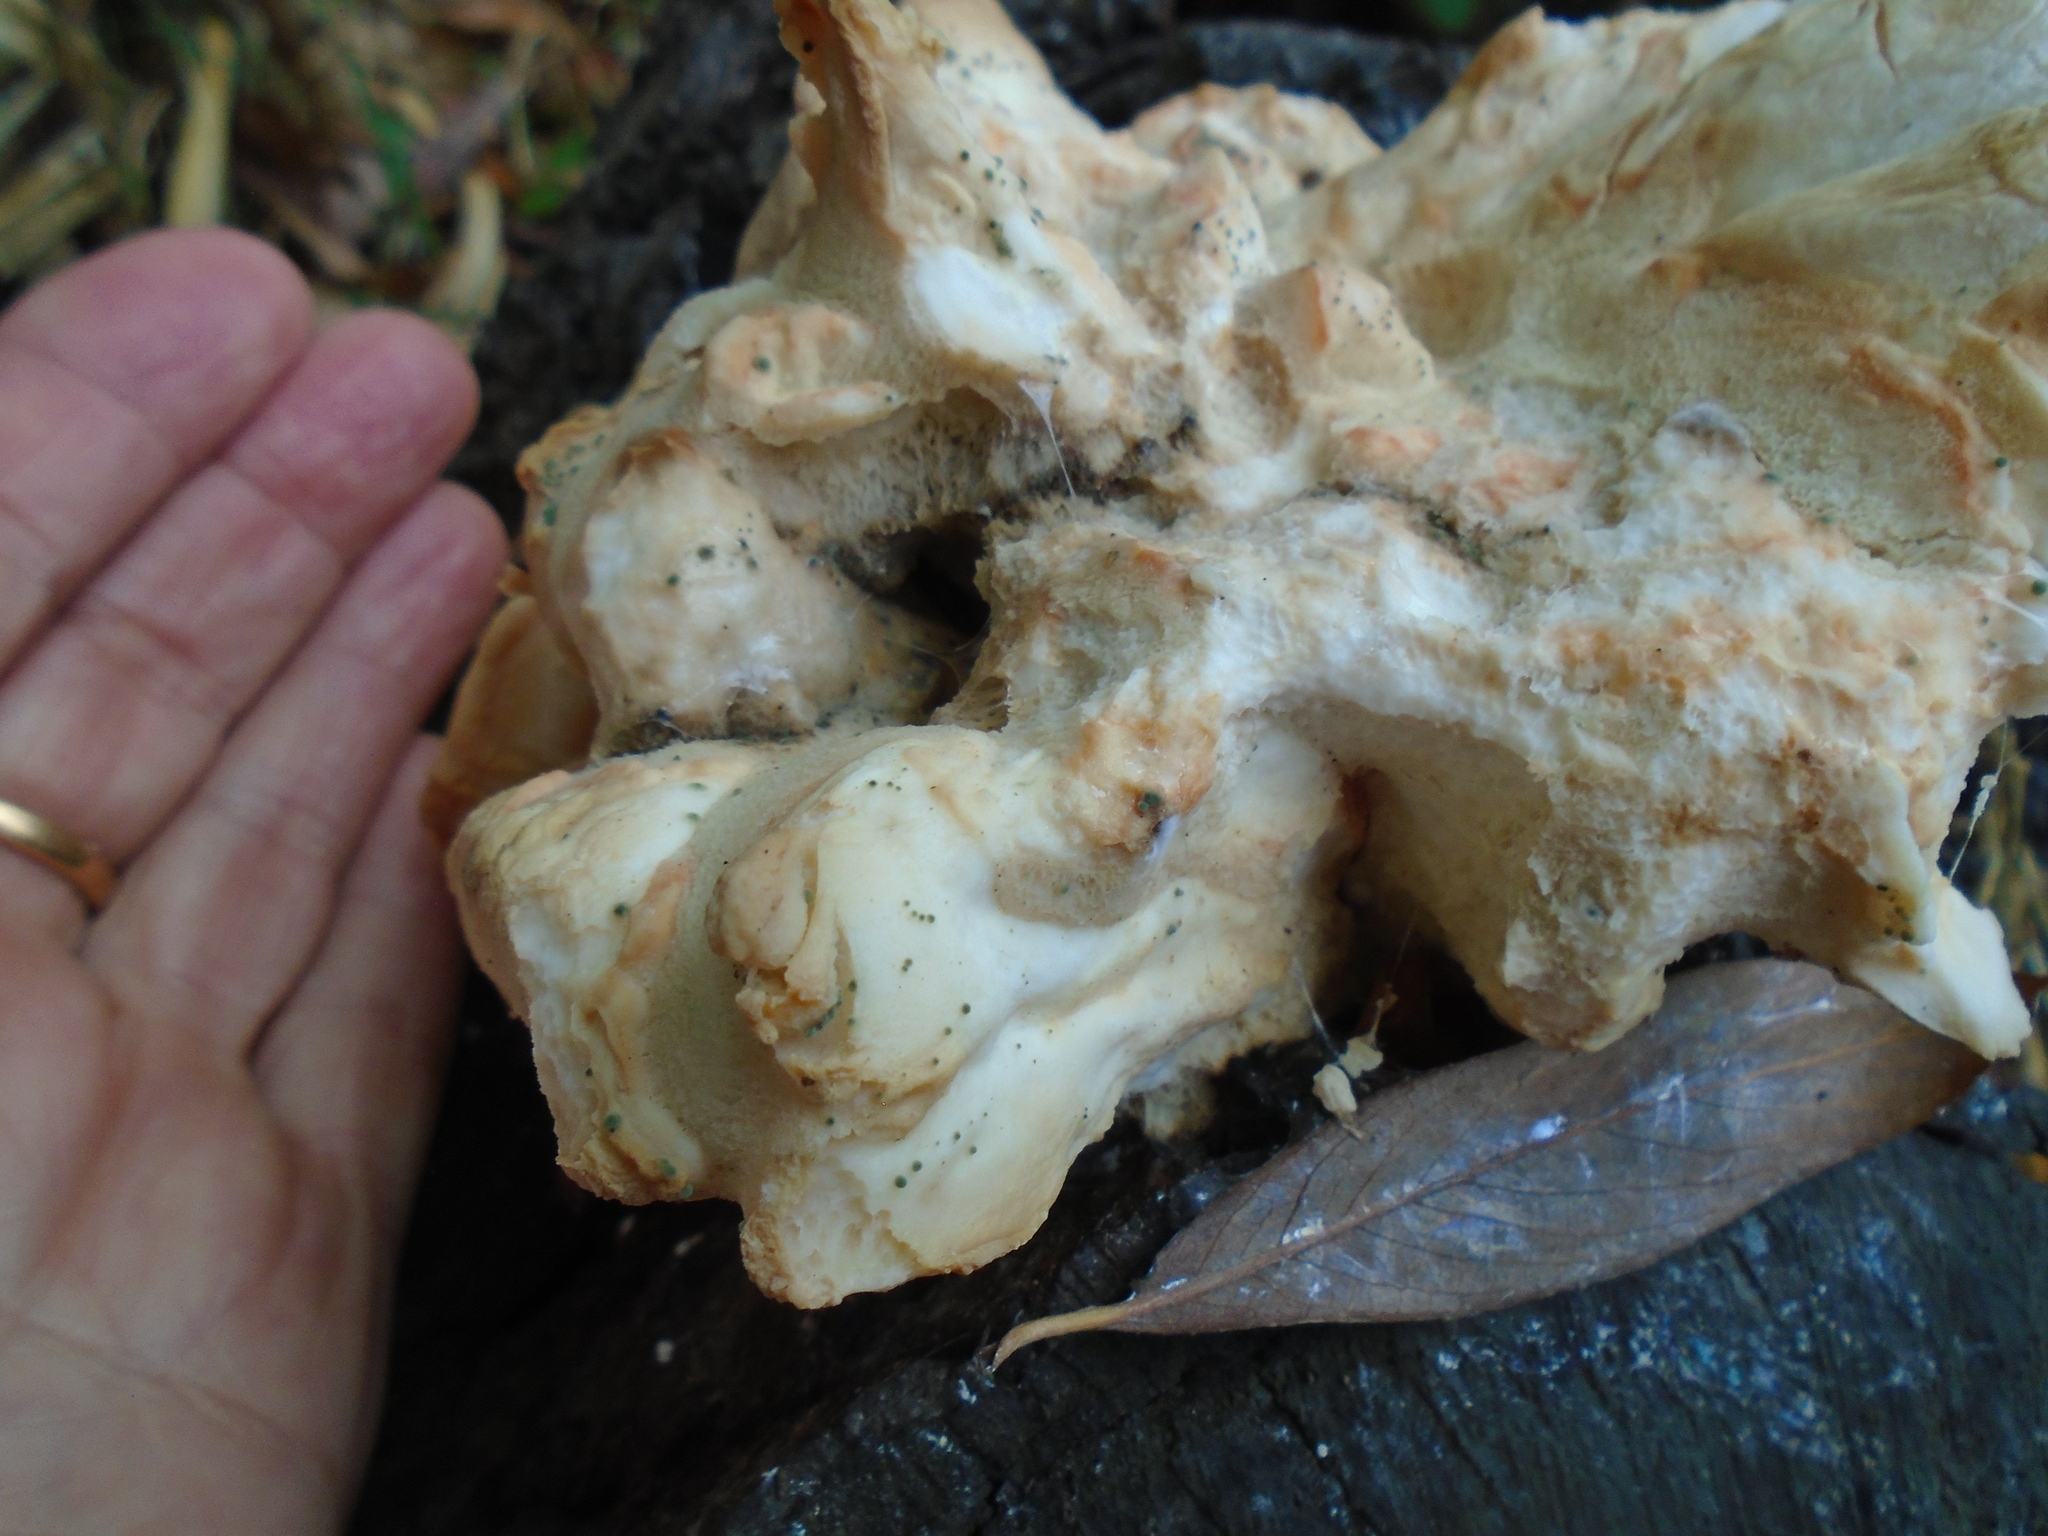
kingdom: Fungi
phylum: Basidiomycota
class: Agaricomycetes
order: Polyporales
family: Laetiporaceae
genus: Laetiporus
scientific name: Laetiporus sulphureus
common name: Chicken of the woods
